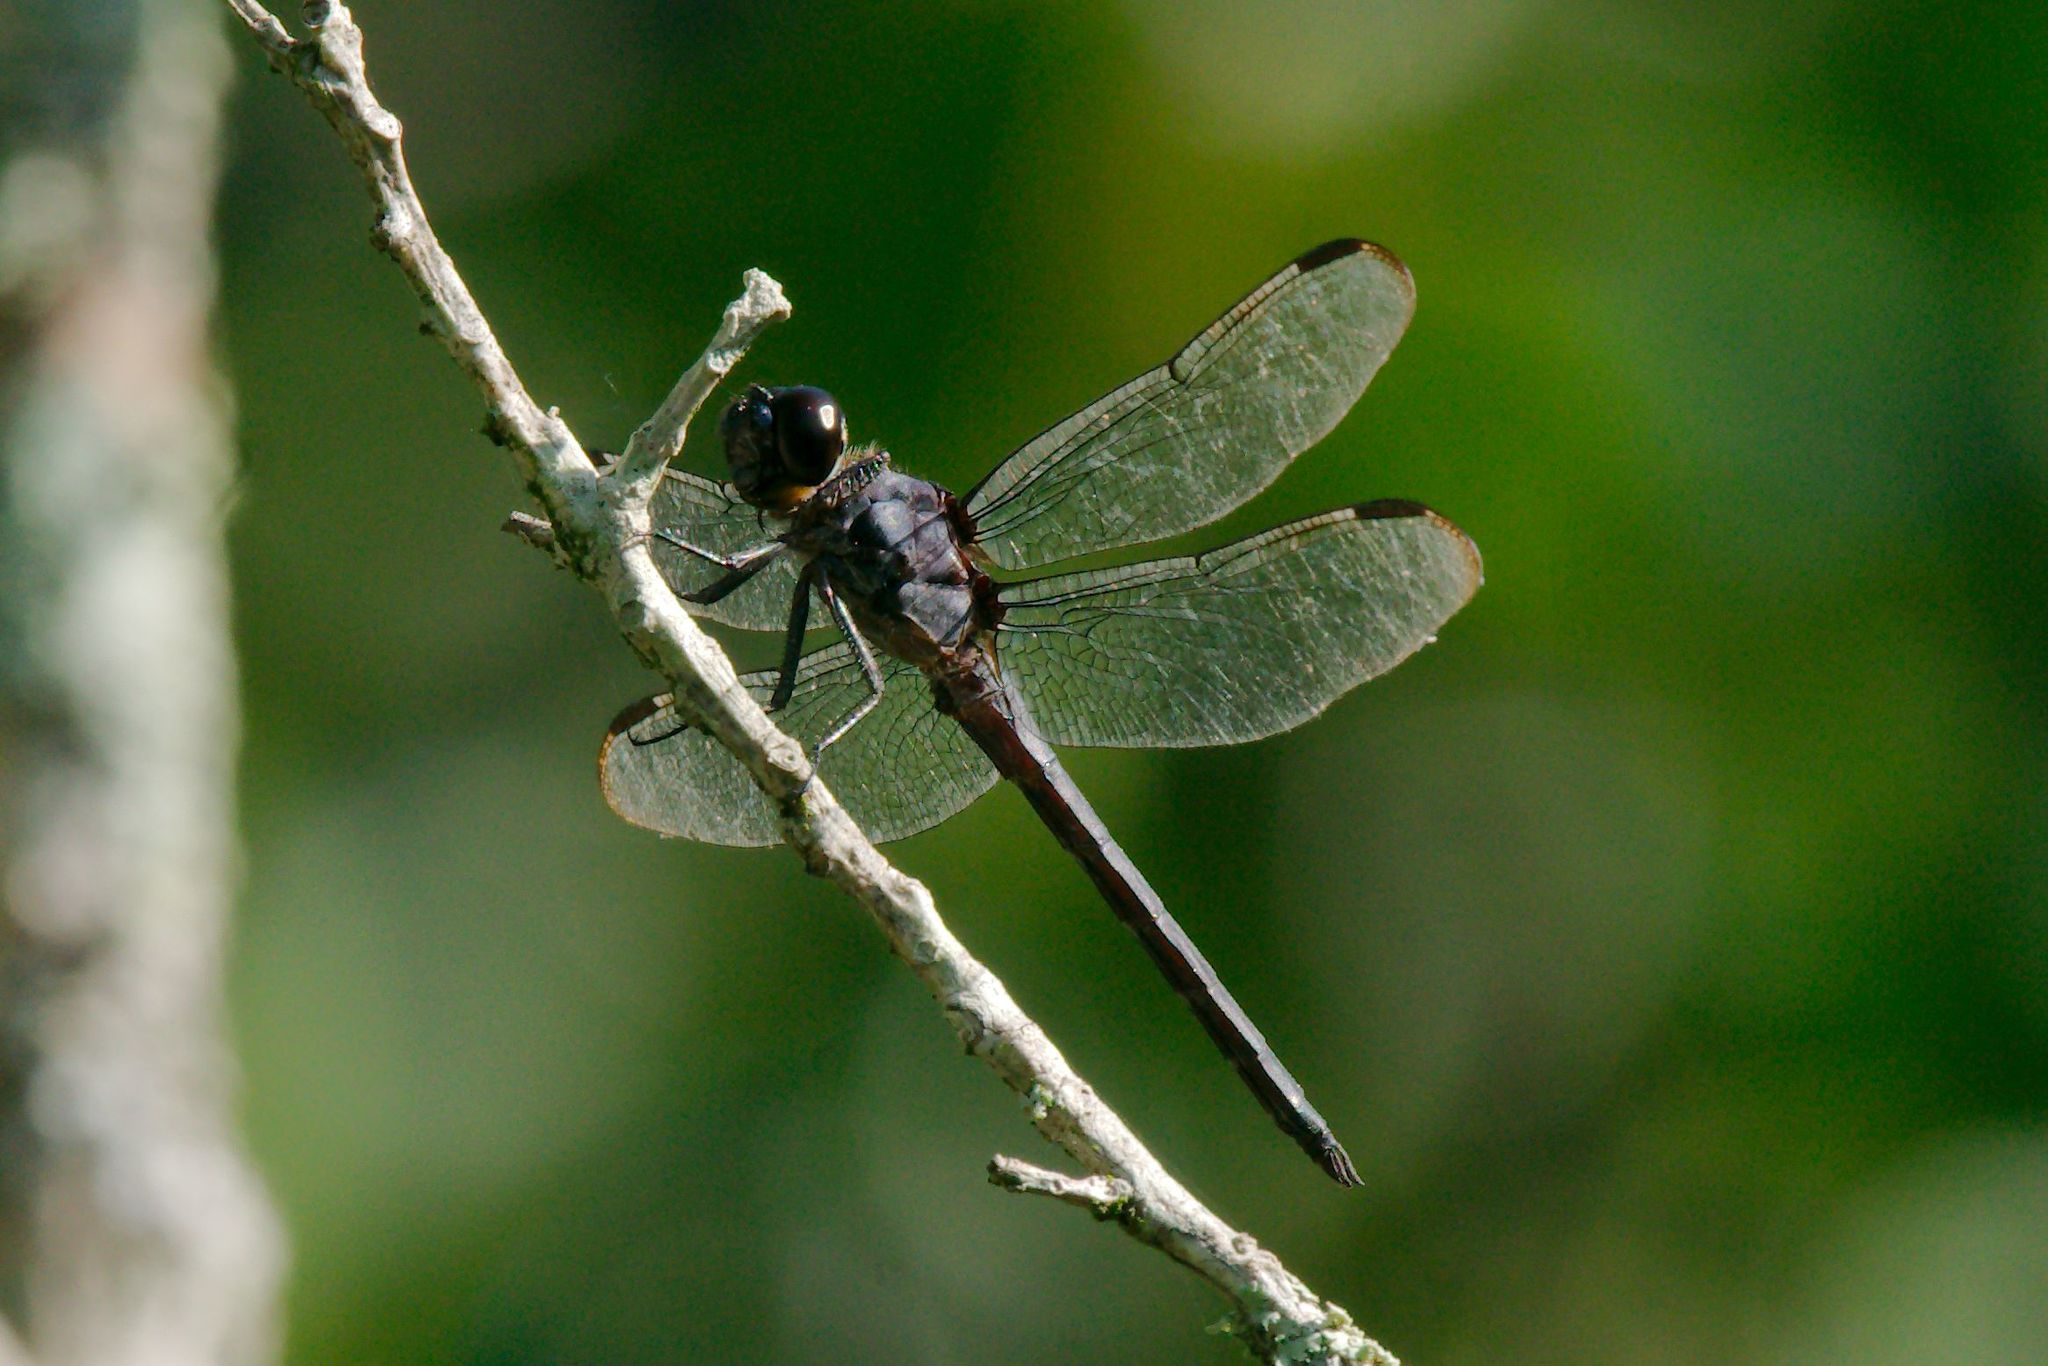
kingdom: Animalia
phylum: Arthropoda
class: Insecta
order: Odonata
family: Libellulidae
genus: Libellula
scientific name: Libellula incesta
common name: Slaty skimmer
